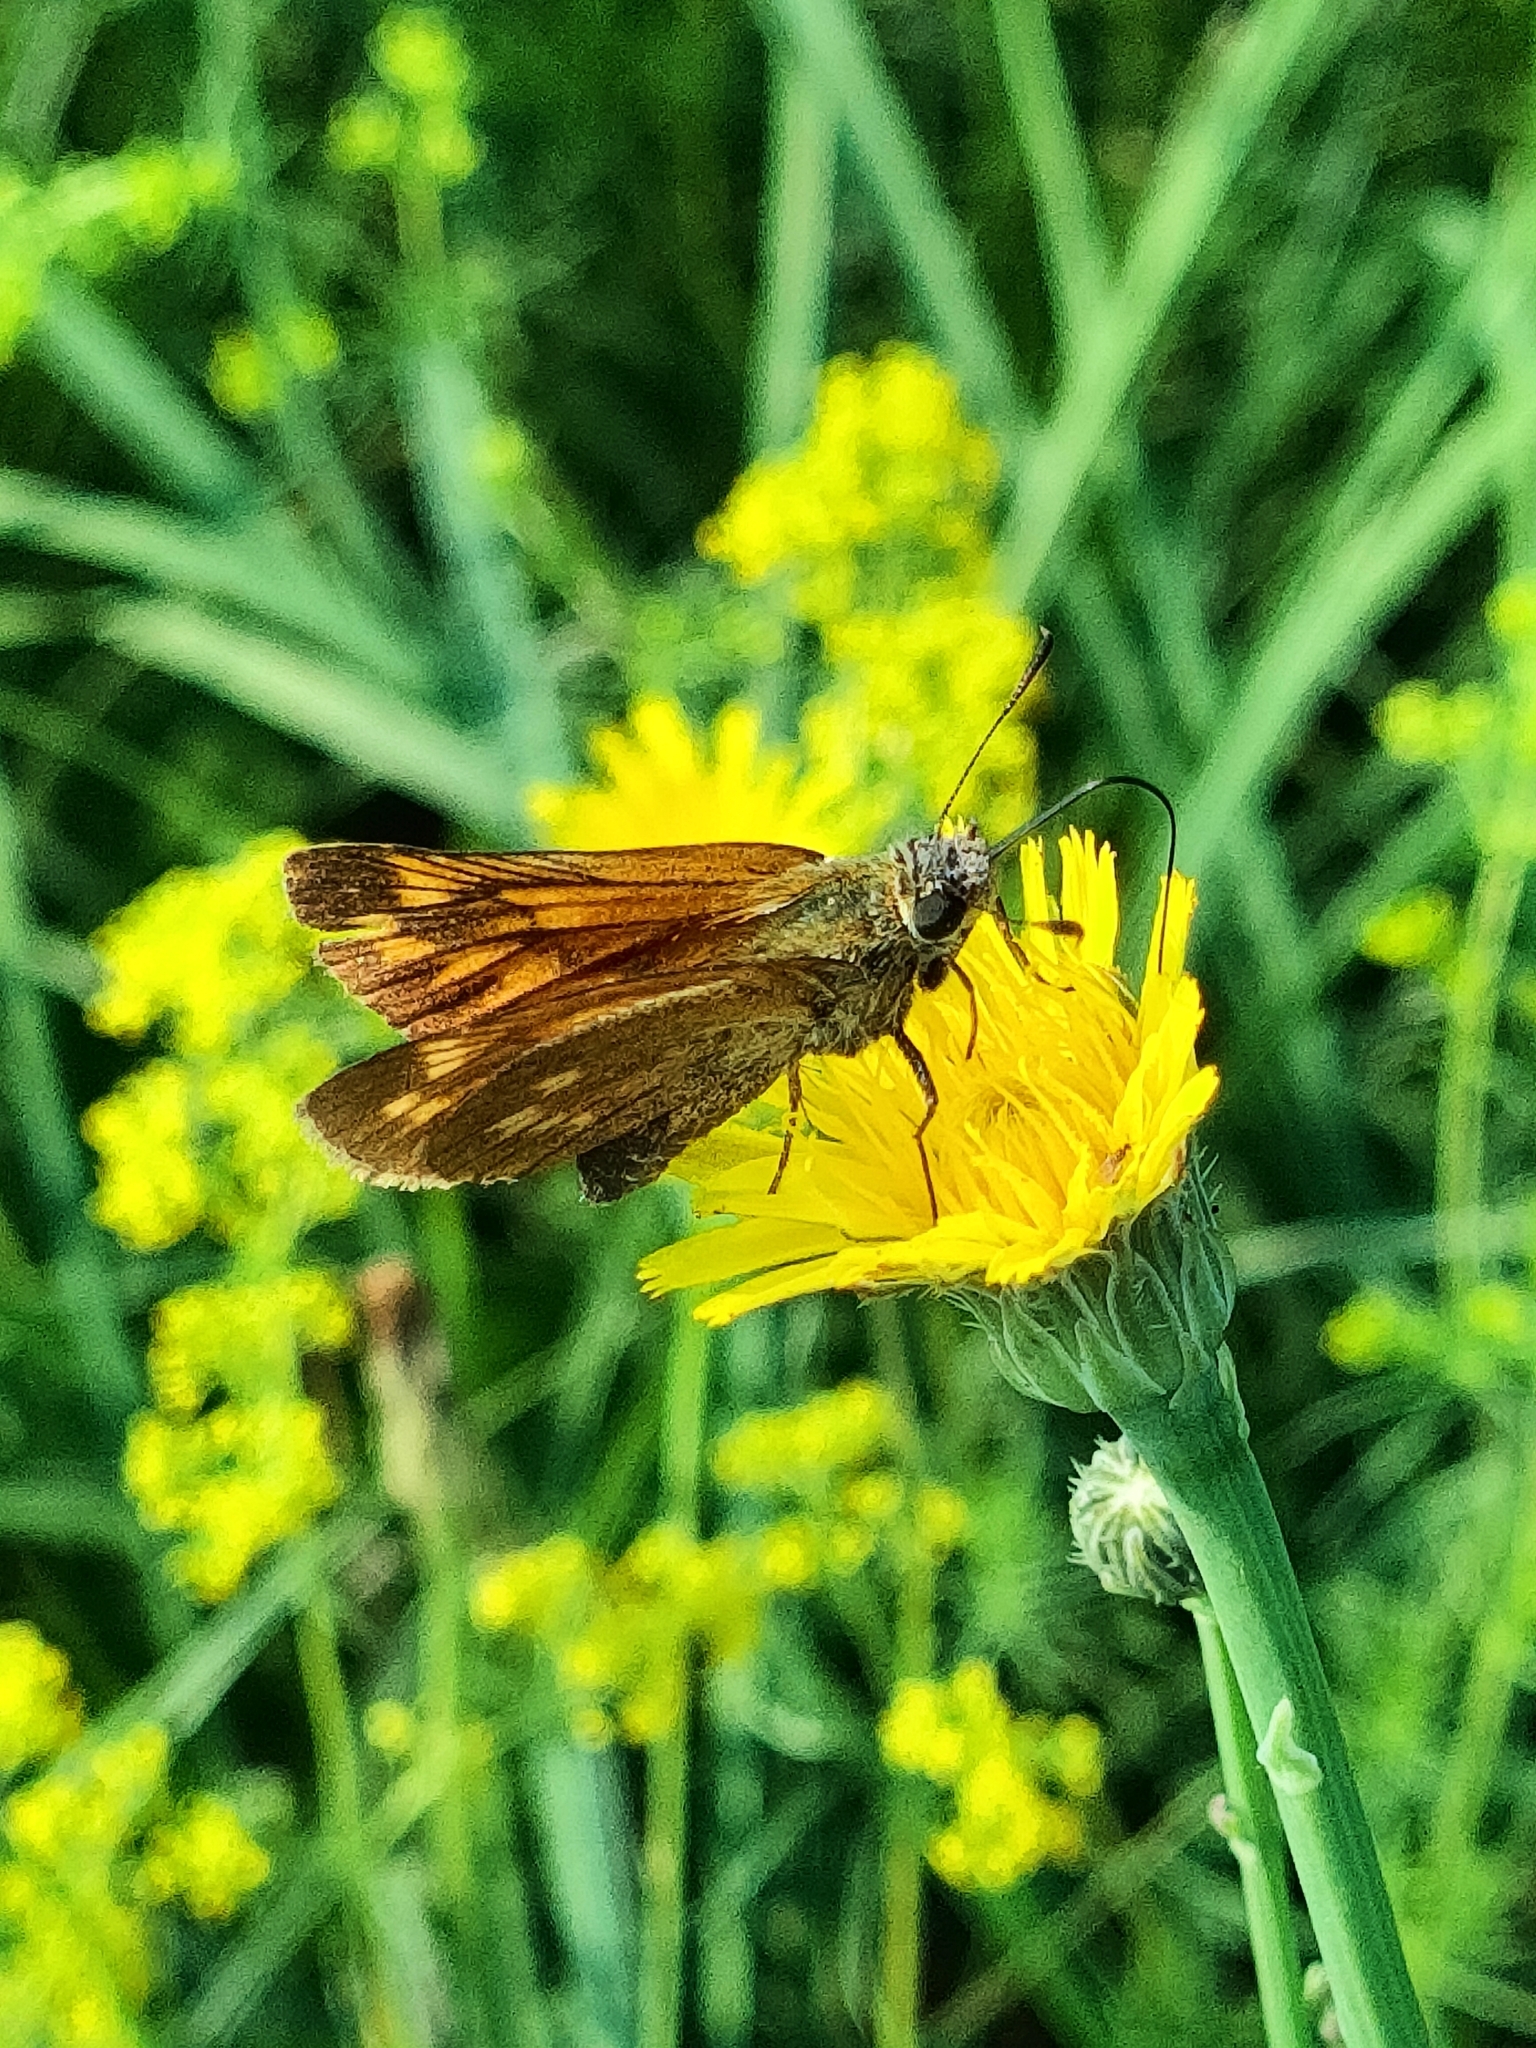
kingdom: Animalia
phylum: Arthropoda
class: Insecta
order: Lepidoptera
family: Hesperiidae
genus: Ochlodes
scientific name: Ochlodes venata
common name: Large skipper
